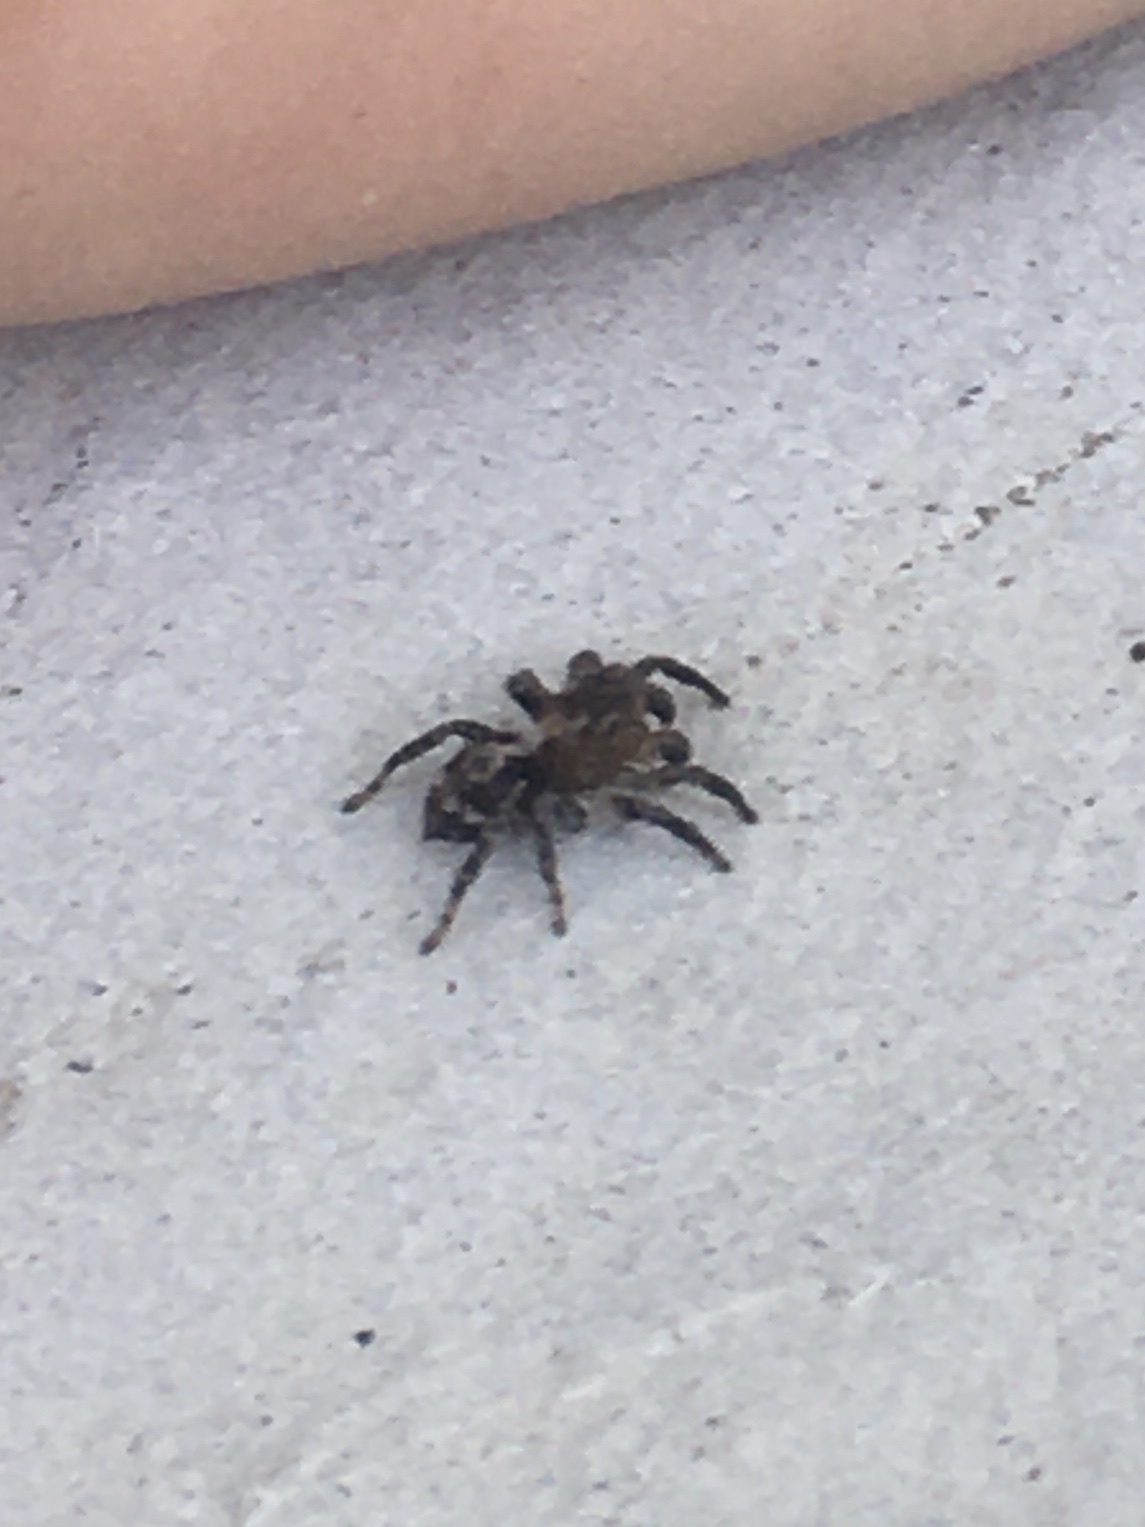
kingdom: Animalia
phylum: Arthropoda
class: Arachnida
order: Araneae
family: Salticidae
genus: Naphrys
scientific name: Naphrys pulex
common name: Flea jumping spider
